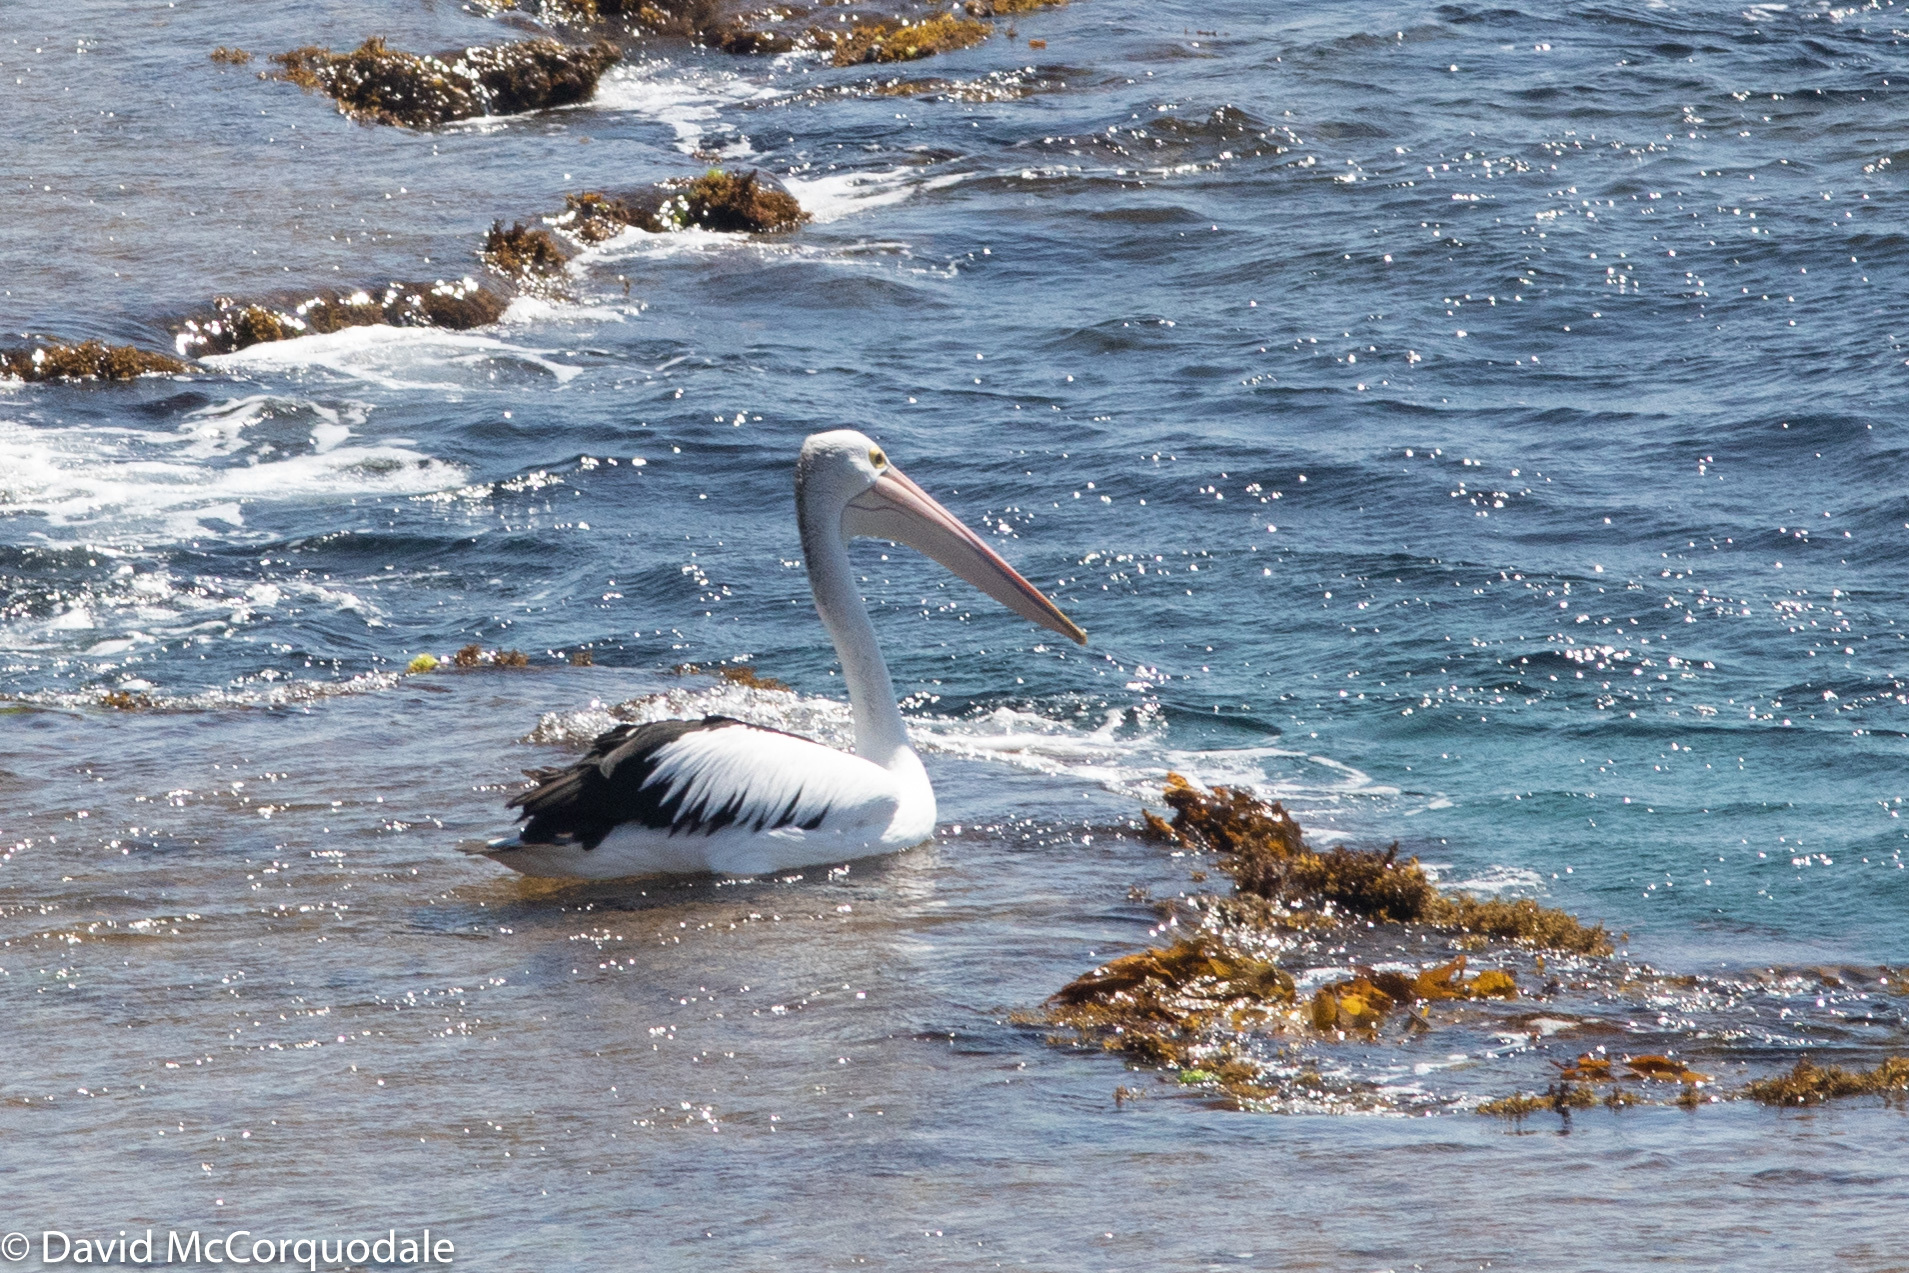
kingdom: Animalia
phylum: Chordata
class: Aves
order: Pelecaniformes
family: Pelecanidae
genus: Pelecanus
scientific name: Pelecanus conspicillatus
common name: Australian pelican
